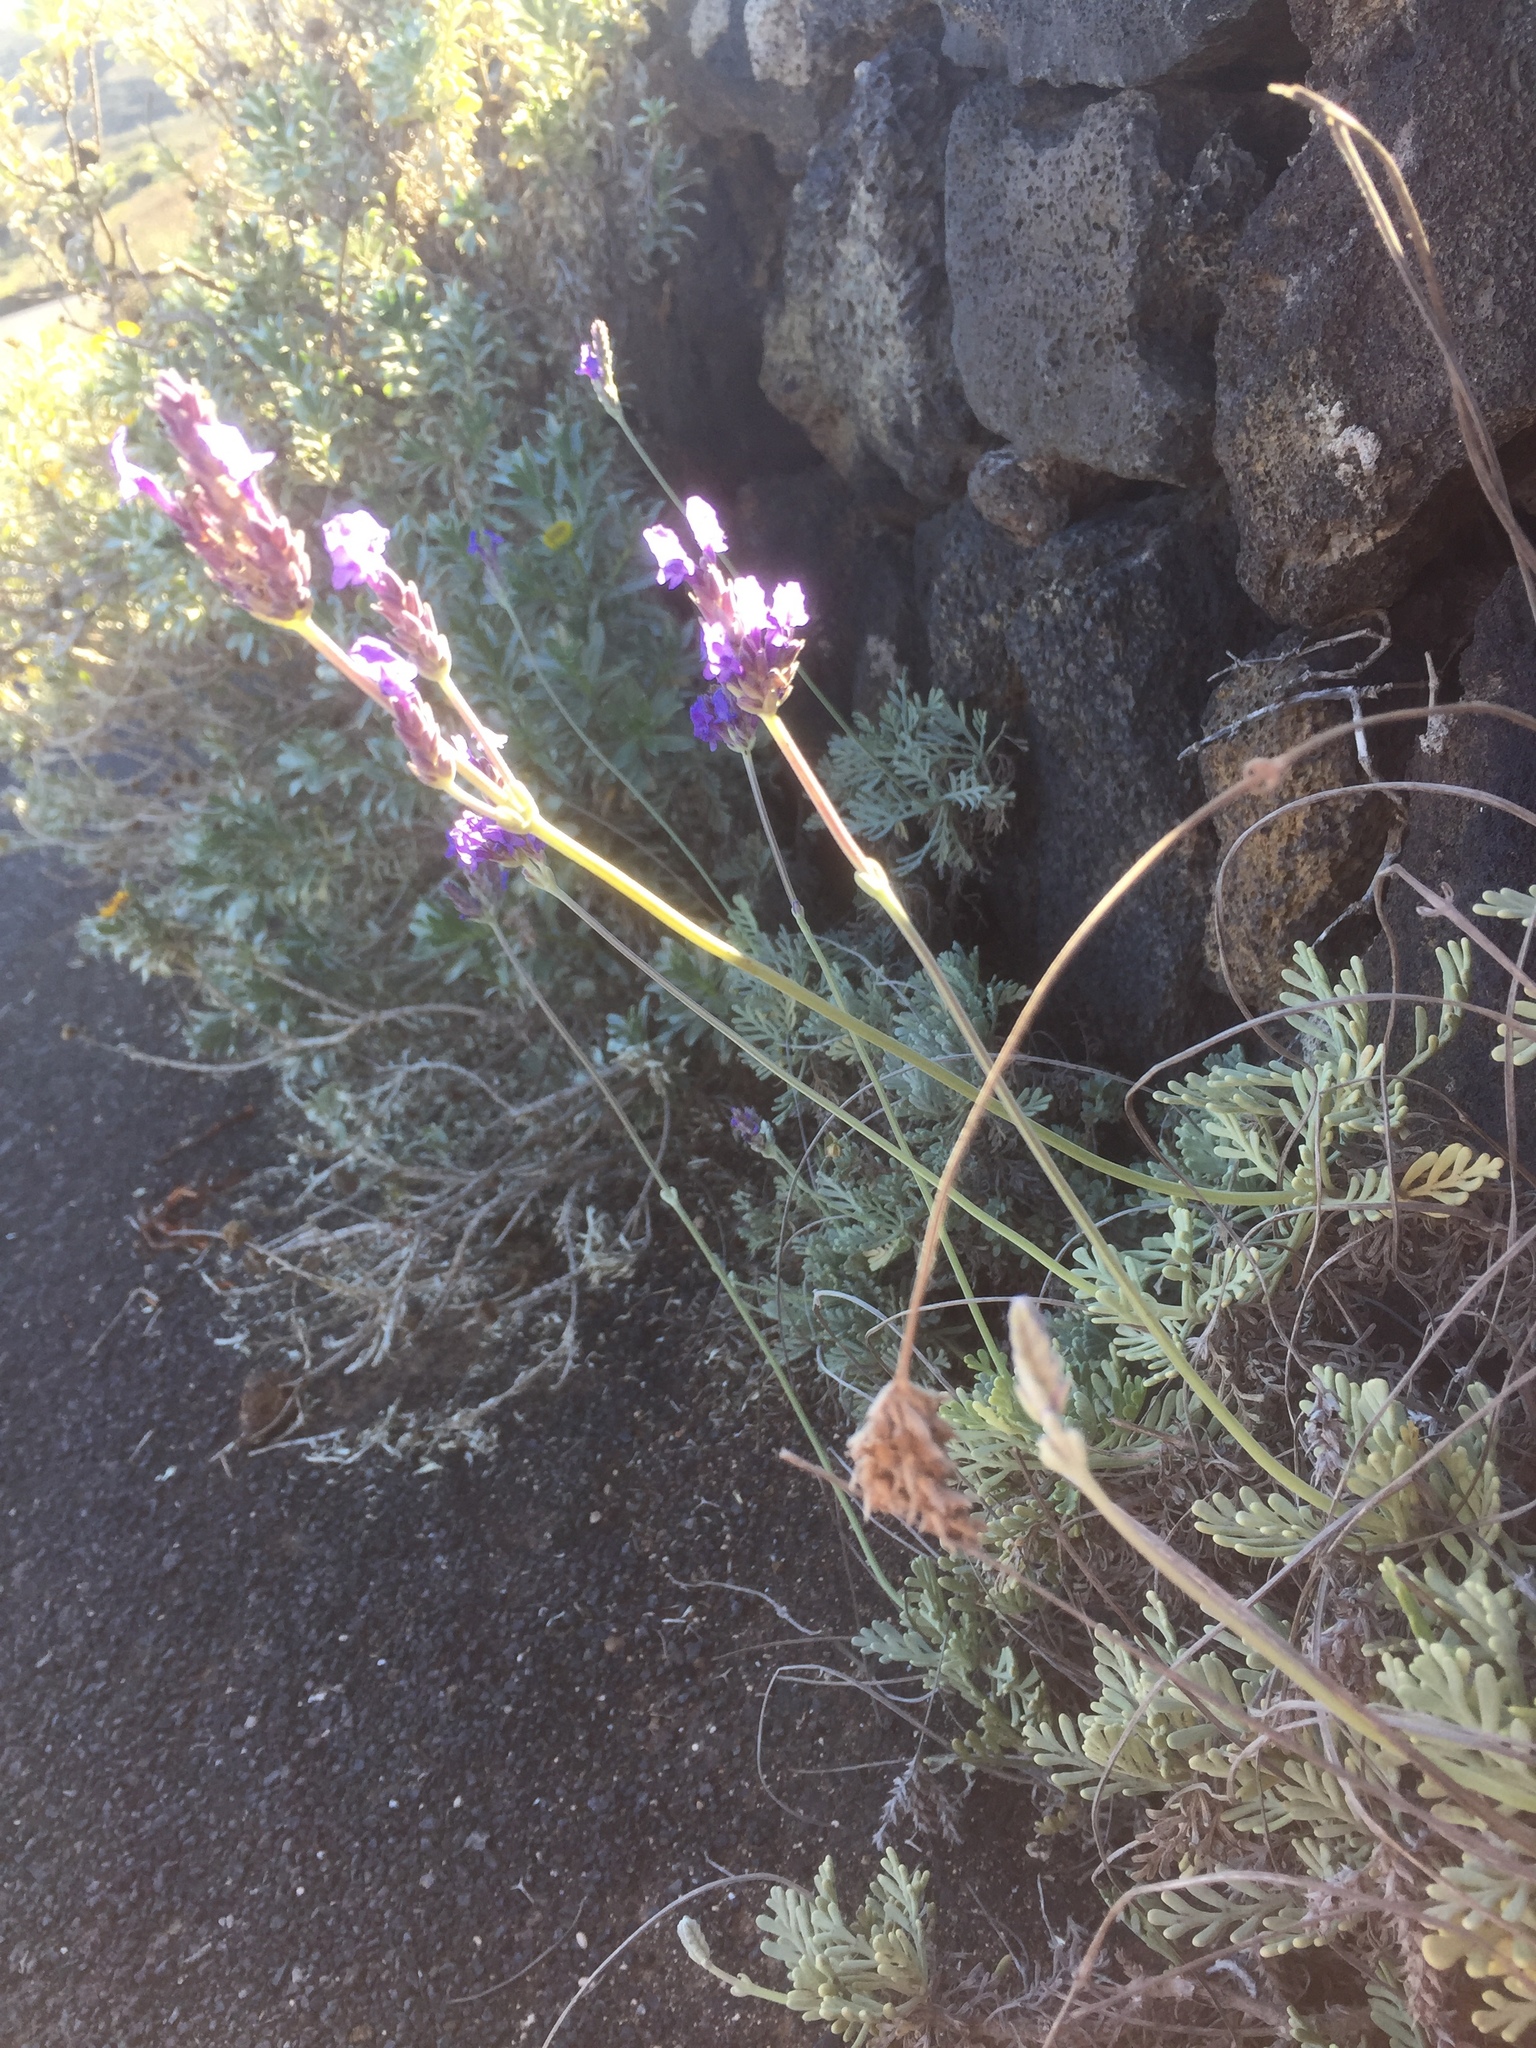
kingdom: Plantae
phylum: Tracheophyta
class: Magnoliopsida
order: Lamiales
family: Lamiaceae
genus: Lavandula
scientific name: Lavandula pinnata
